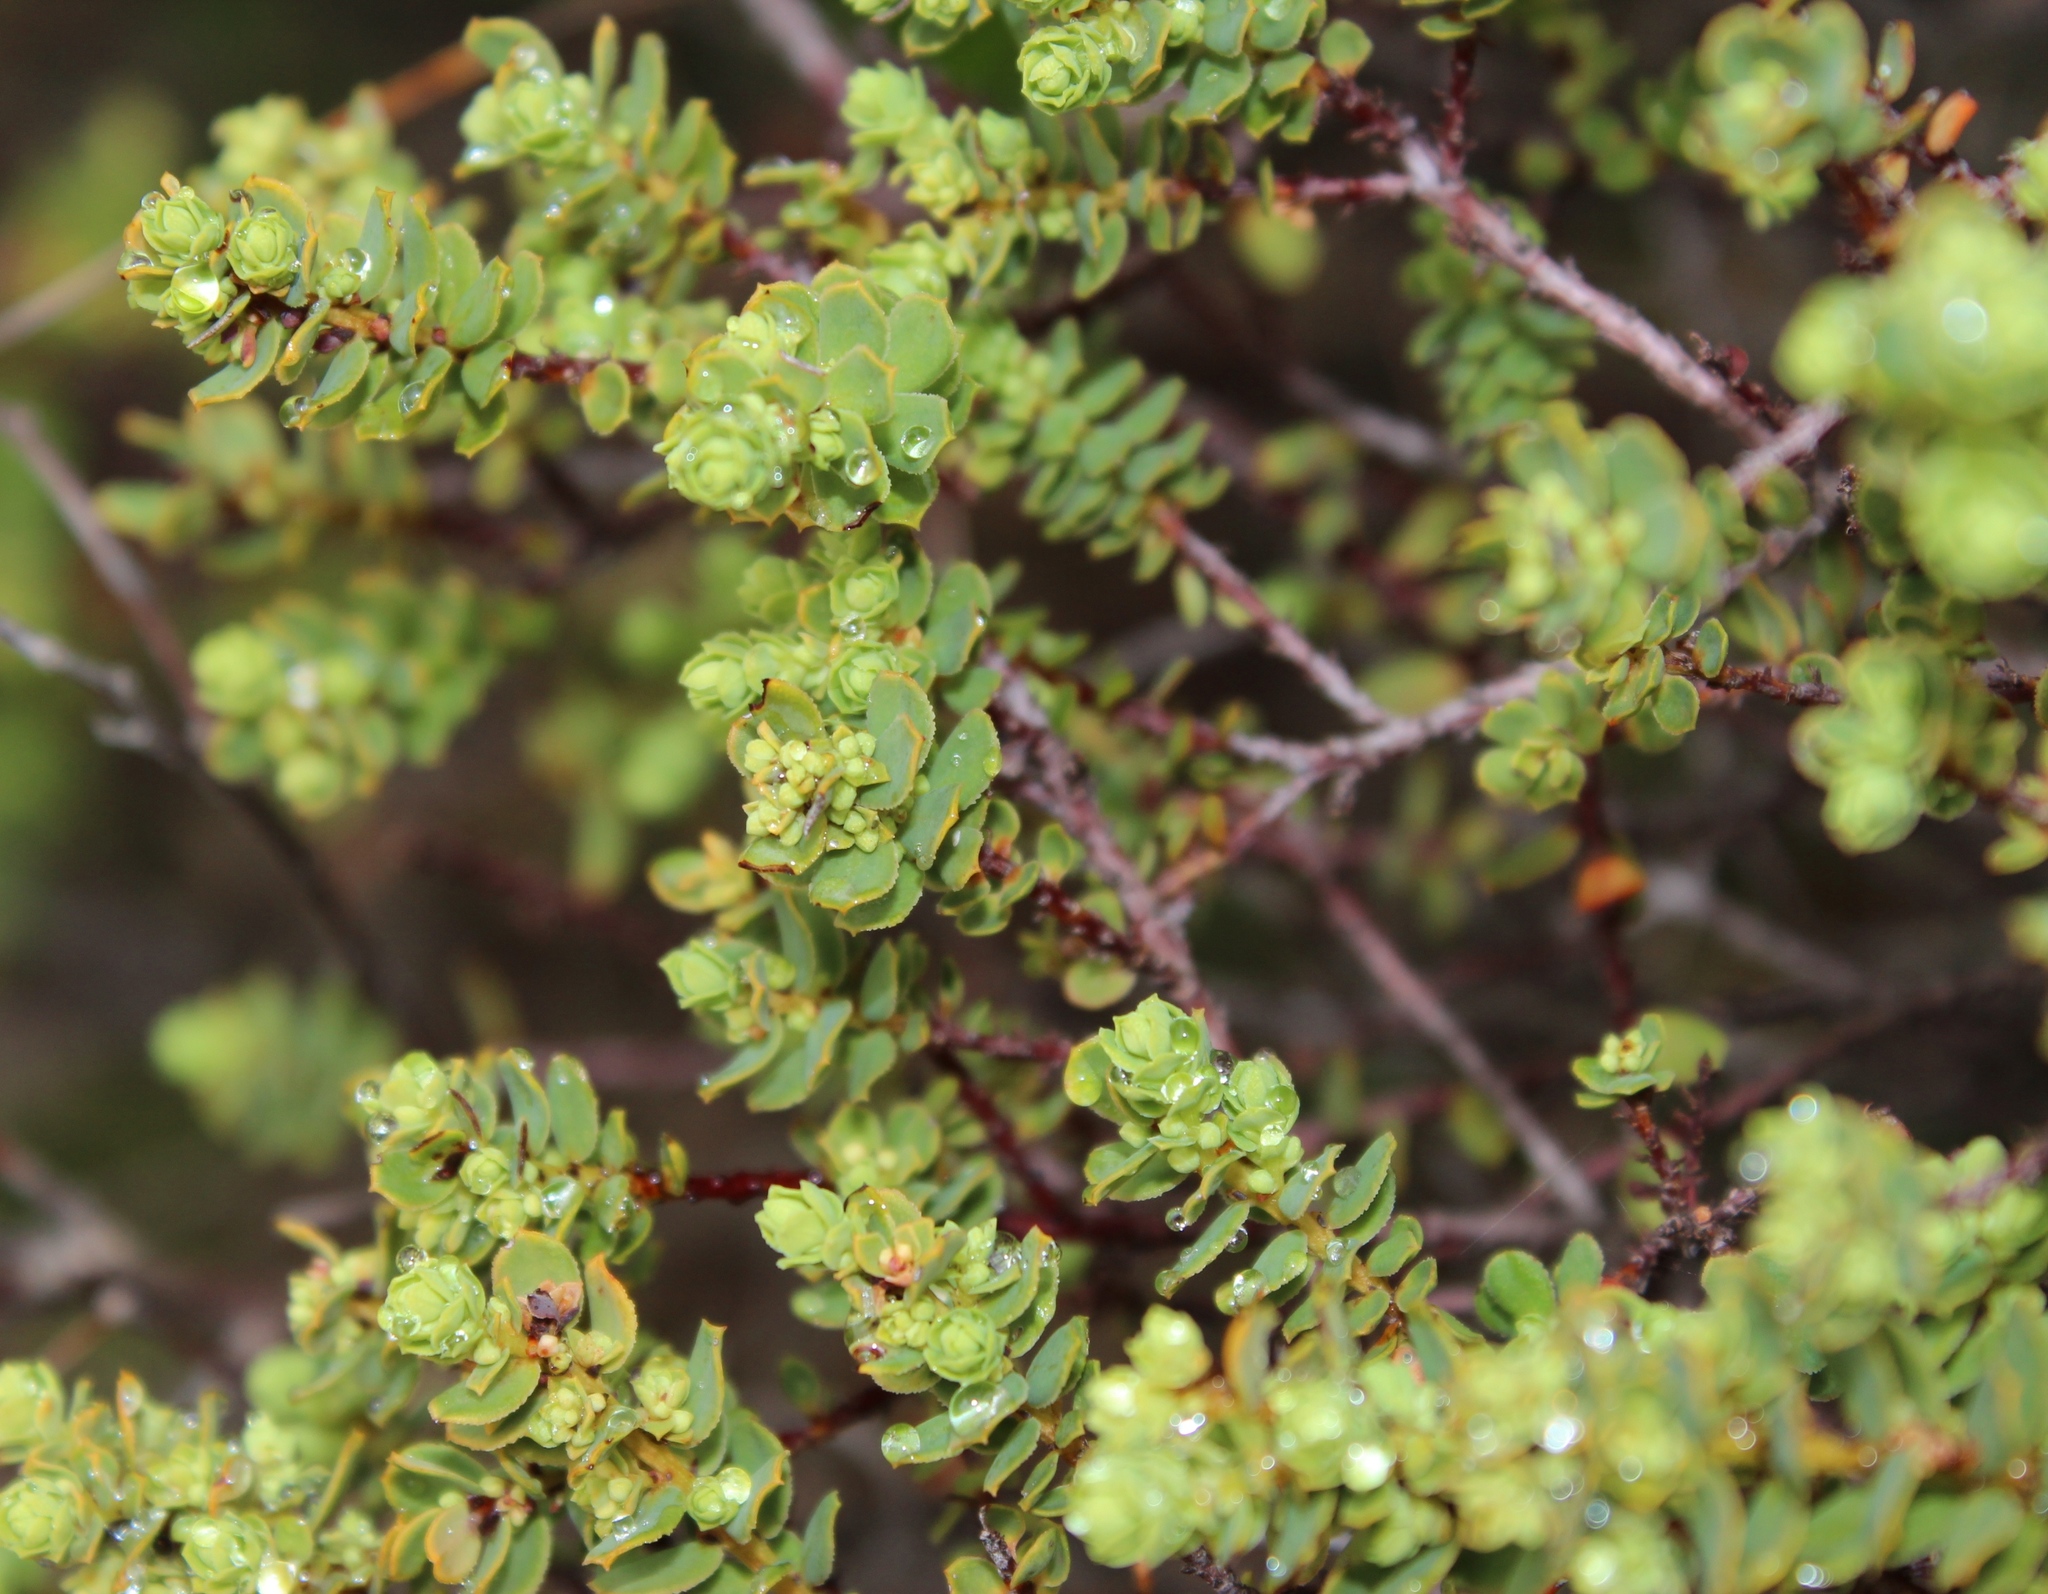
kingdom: Plantae
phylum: Tracheophyta
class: Magnoliopsida
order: Malpighiales
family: Peraceae
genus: Clutia
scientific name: Clutia alaternoides
